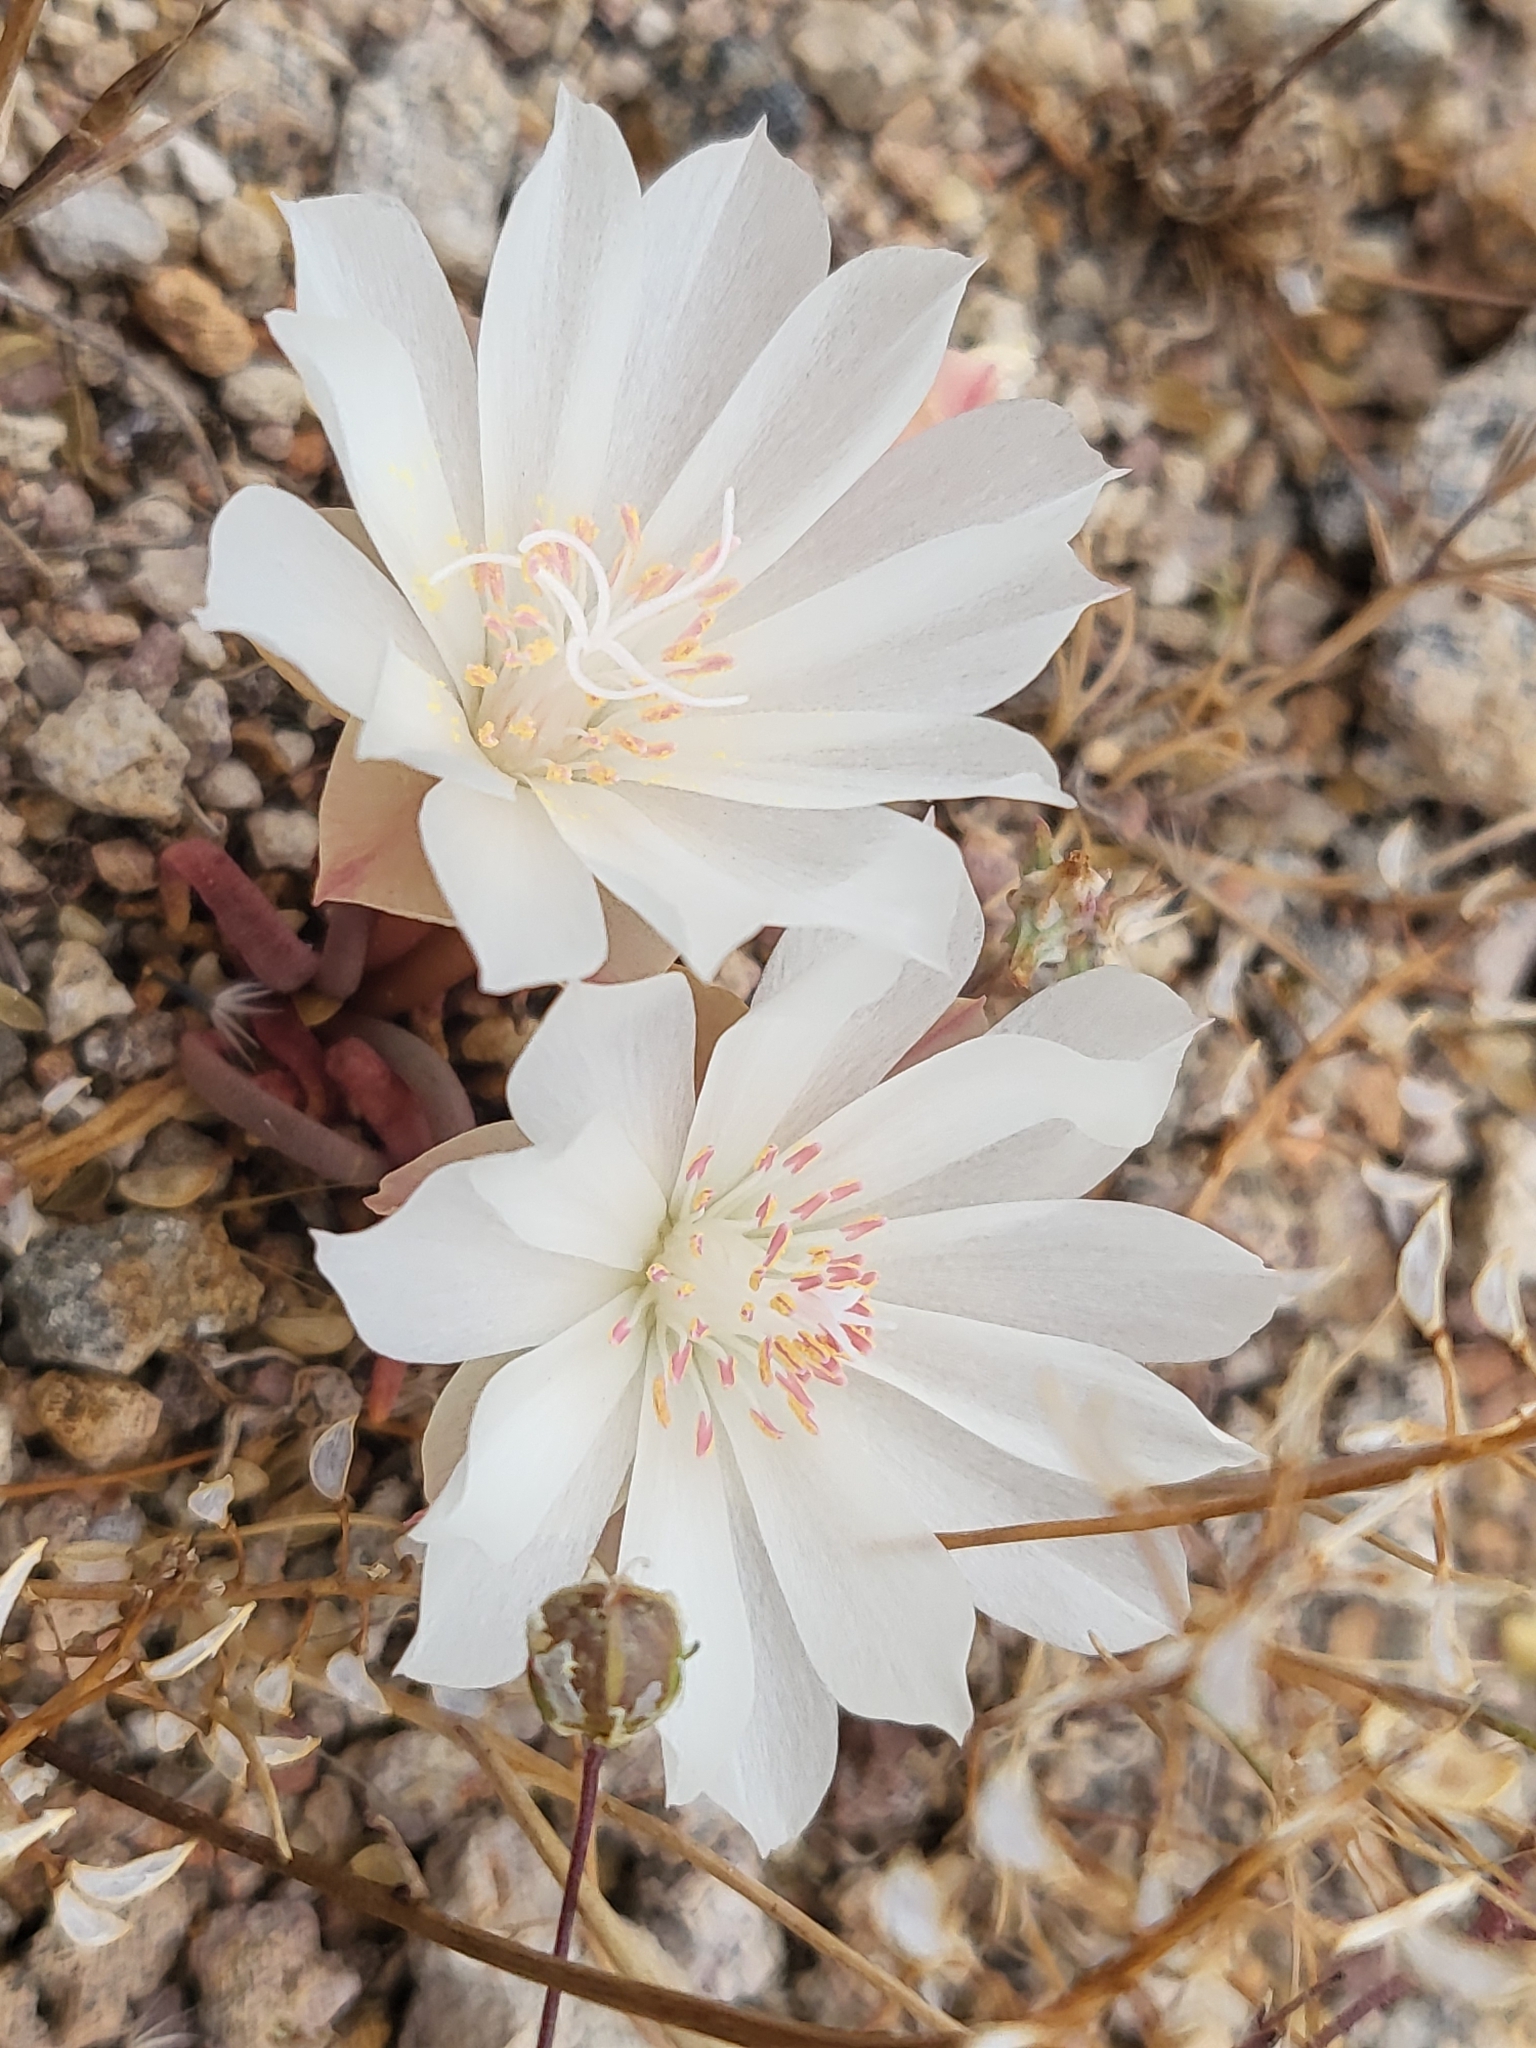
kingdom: Plantae
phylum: Tracheophyta
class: Magnoliopsida
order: Caryophyllales
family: Montiaceae
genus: Lewisia
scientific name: Lewisia rediviva
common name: Bitter-root
